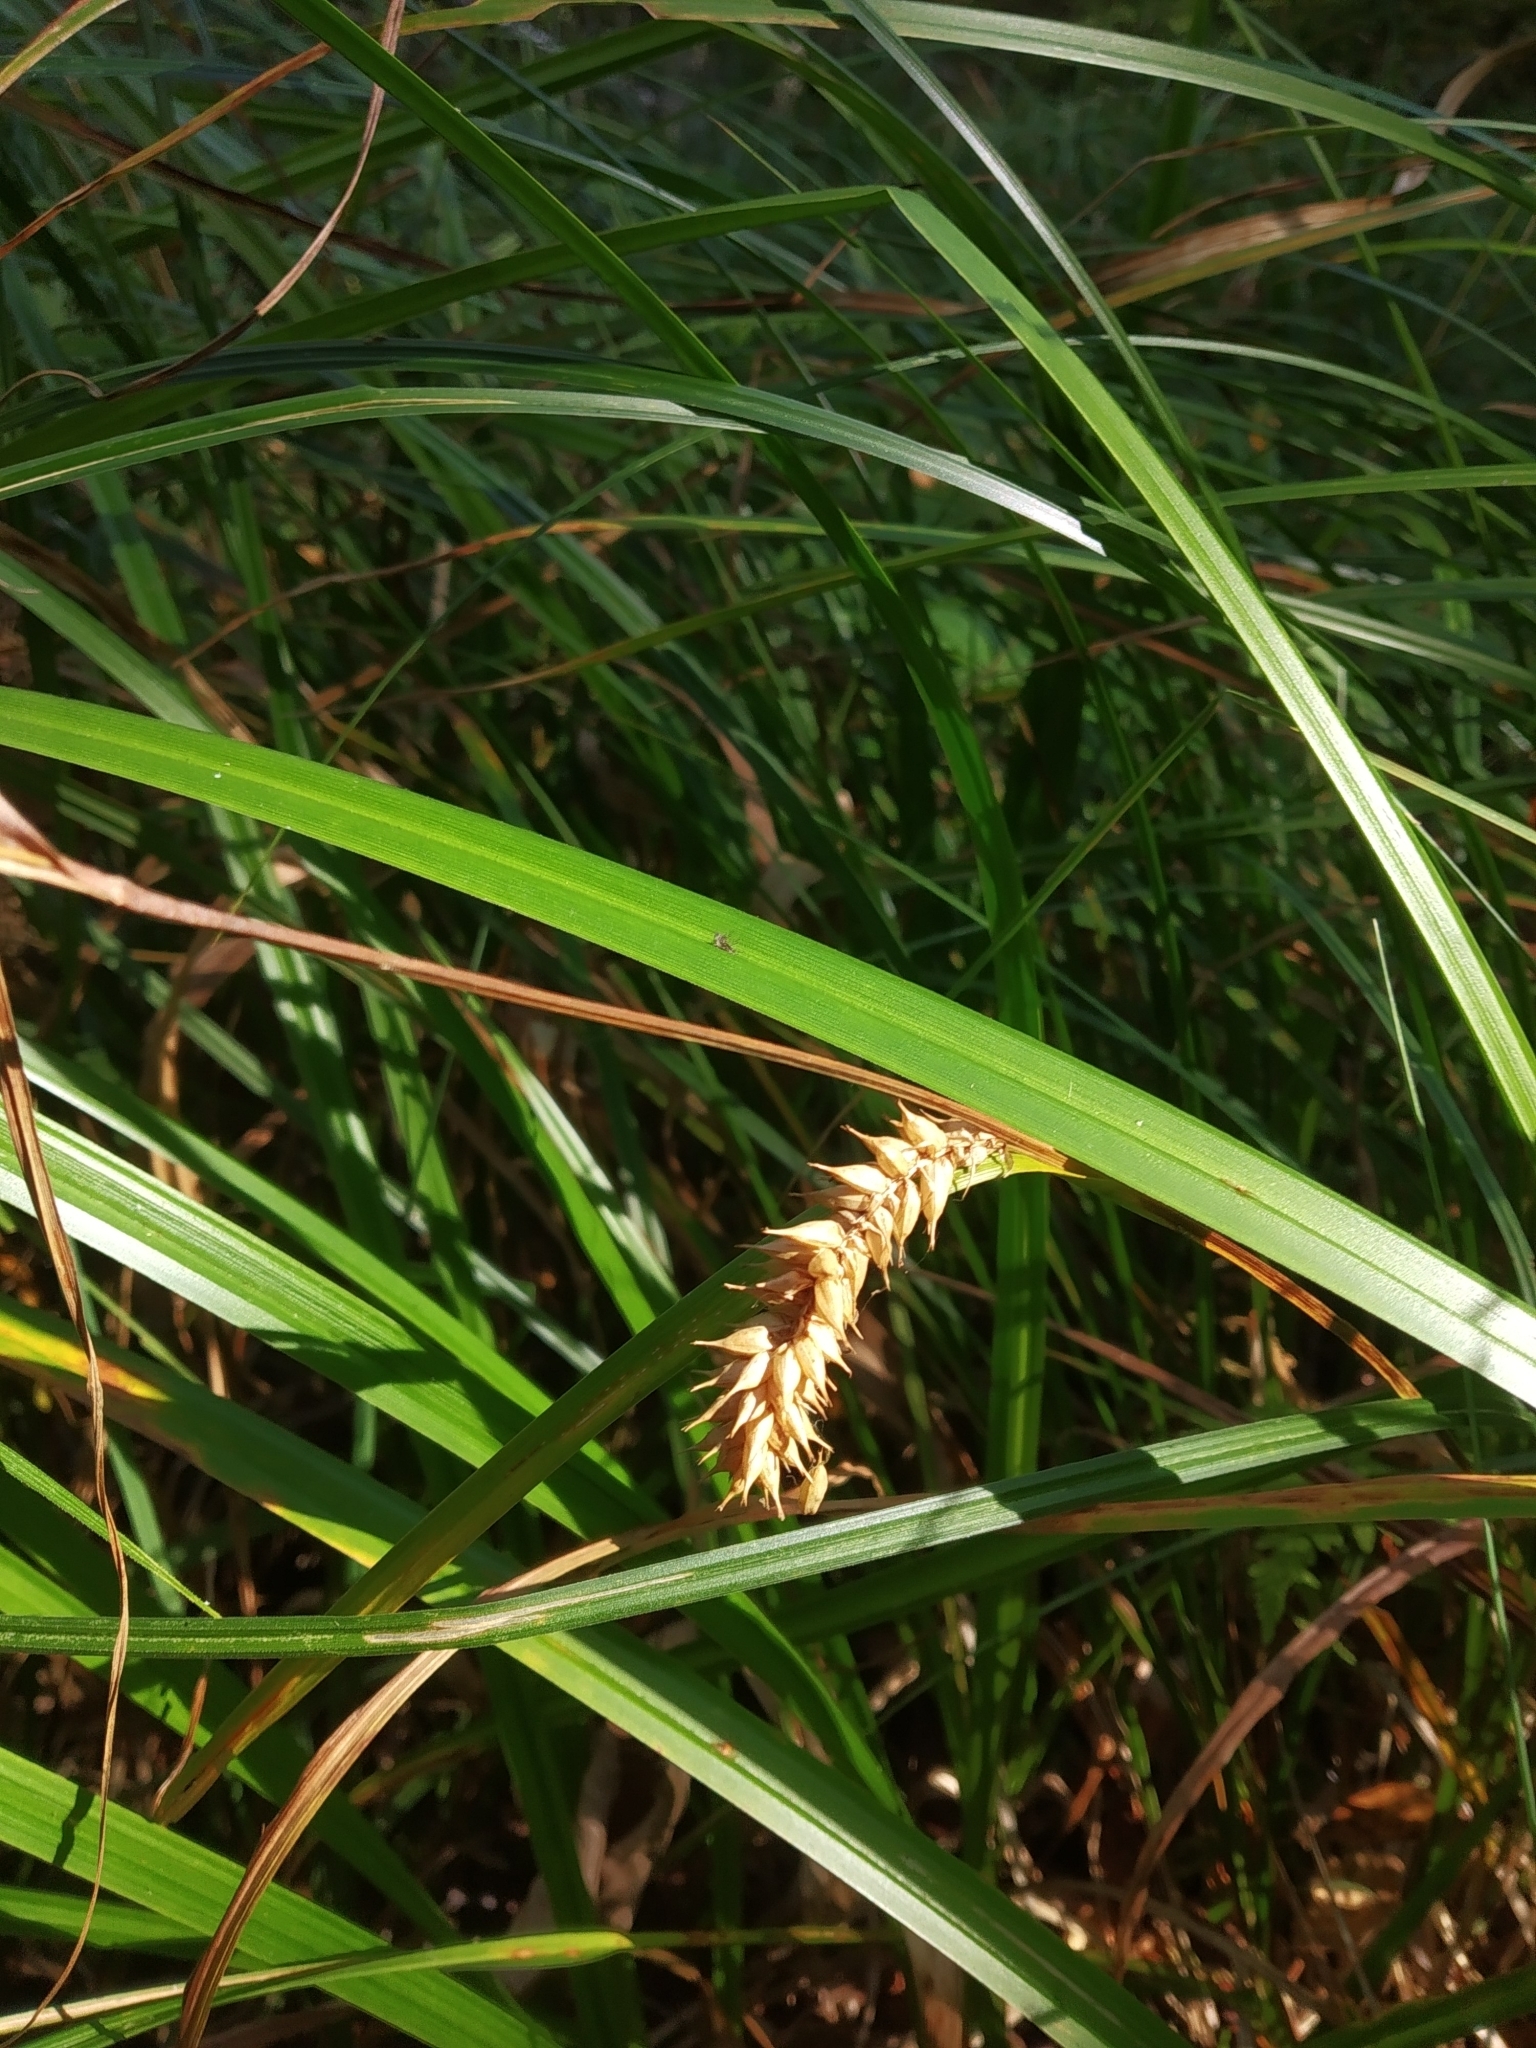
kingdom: Plantae
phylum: Tracheophyta
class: Liliopsida
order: Poales
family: Cyperaceae
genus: Carex
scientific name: Carex vesicaria
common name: Bladder-sedge
